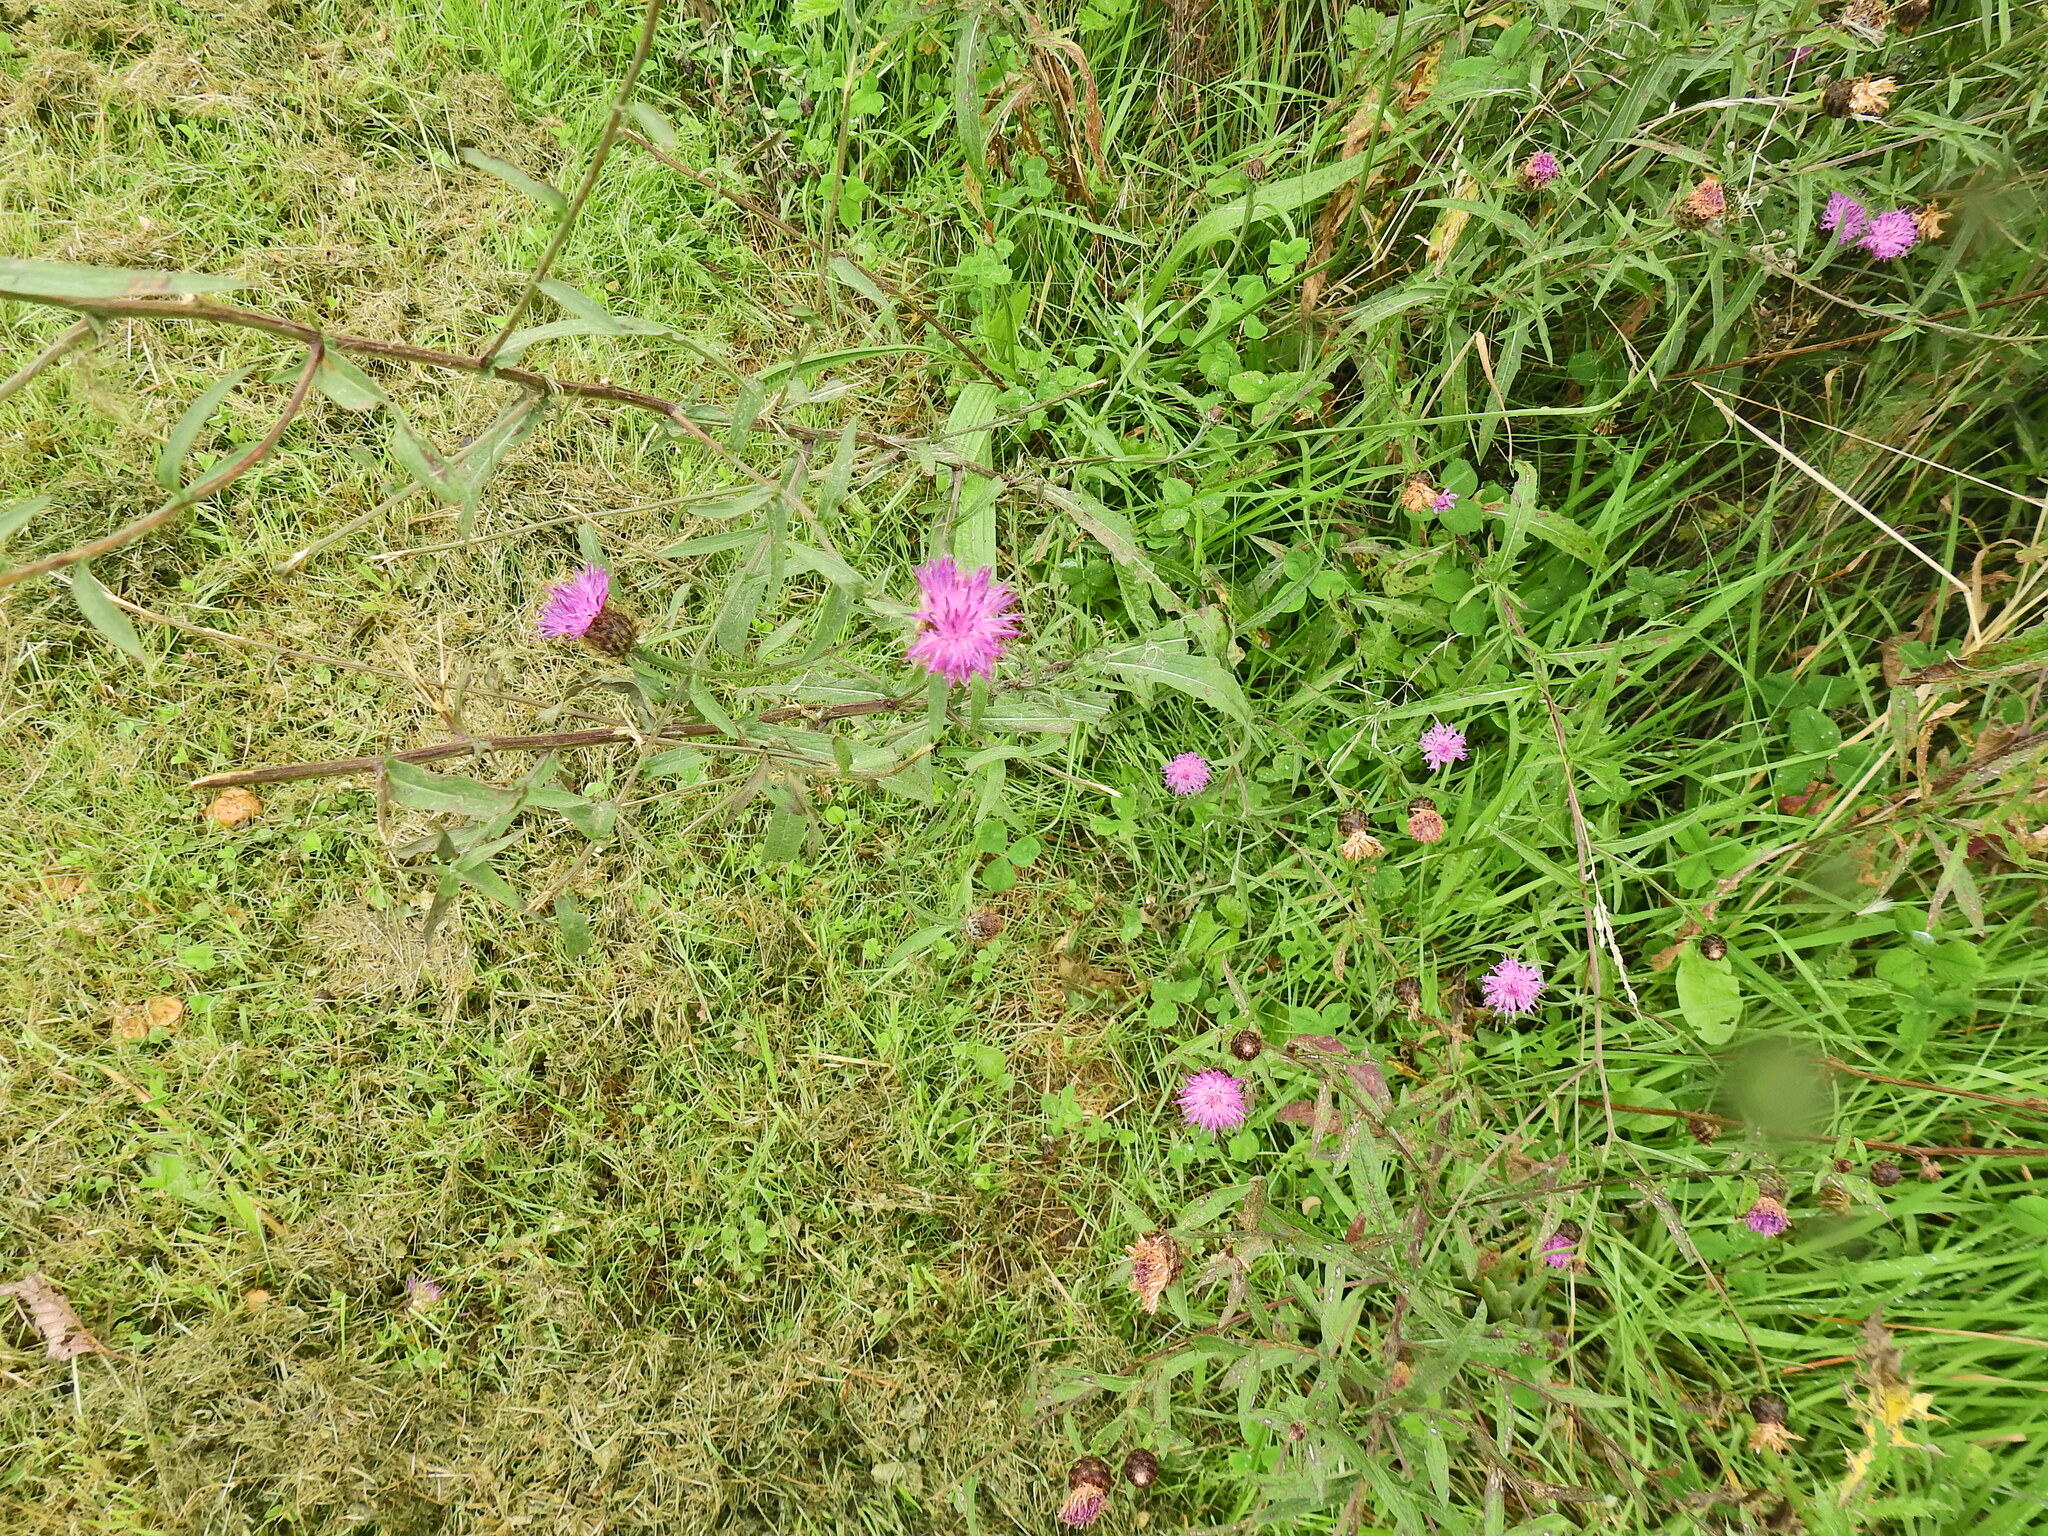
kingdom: Plantae
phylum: Tracheophyta
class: Magnoliopsida
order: Asterales
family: Asteraceae
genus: Centaurea
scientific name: Centaurea nigra
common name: Lesser knapweed
